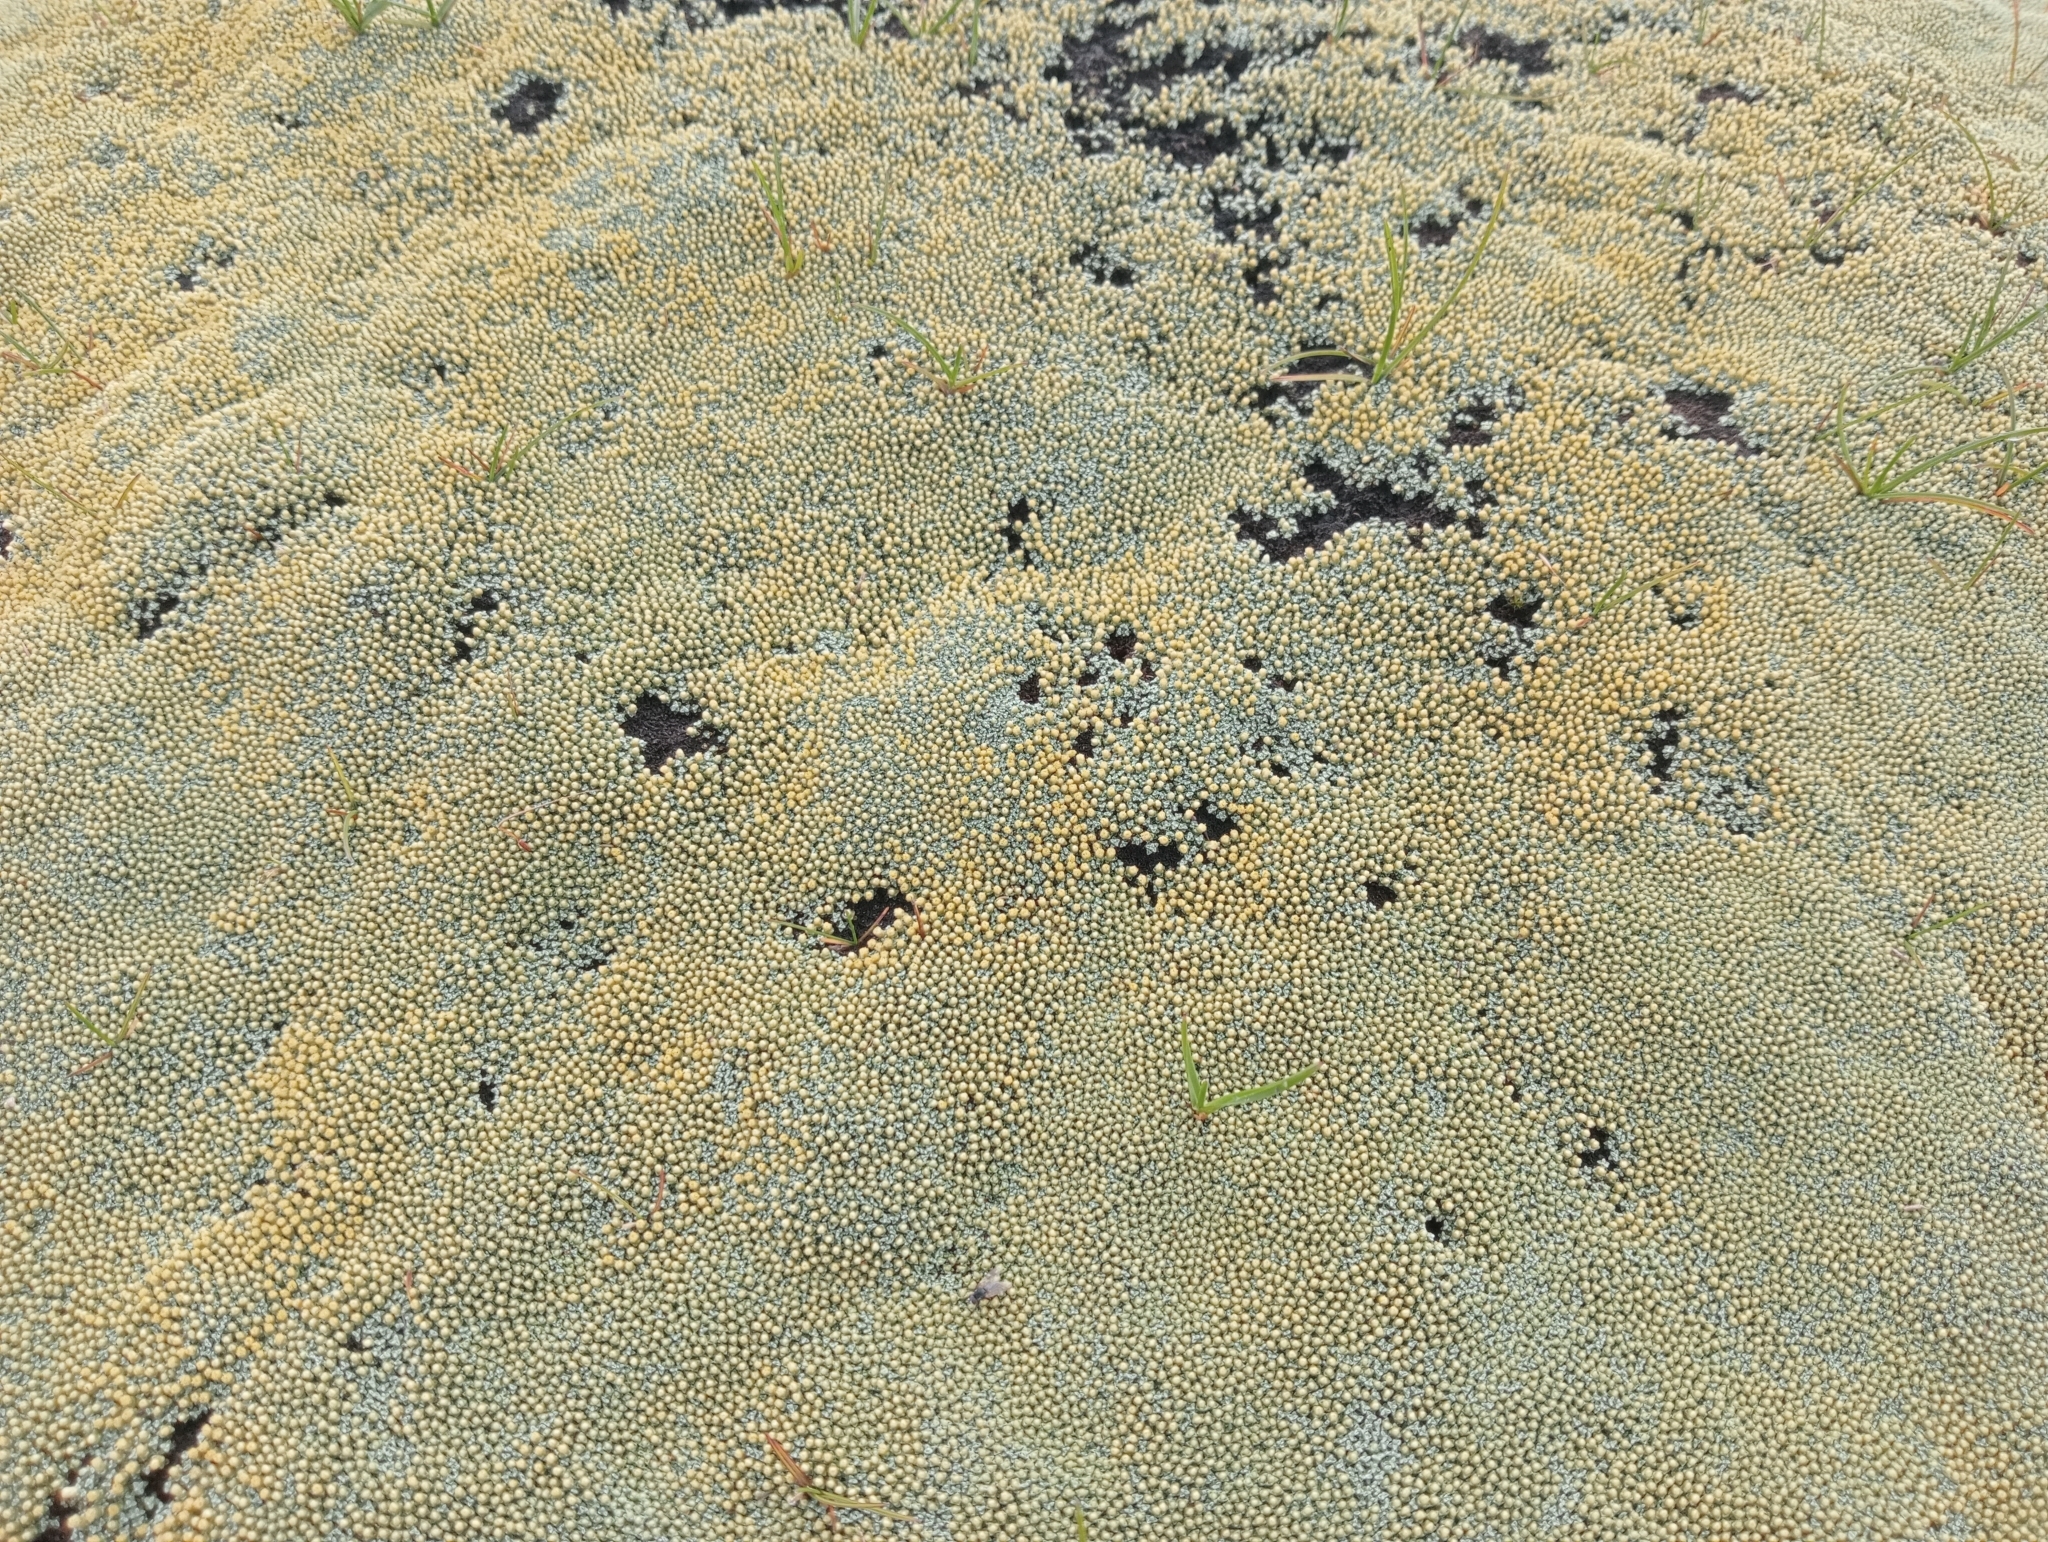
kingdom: Plantae
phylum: Tracheophyta
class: Magnoliopsida
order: Asterales
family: Asteraceae
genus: Raoulia
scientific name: Raoulia australis
